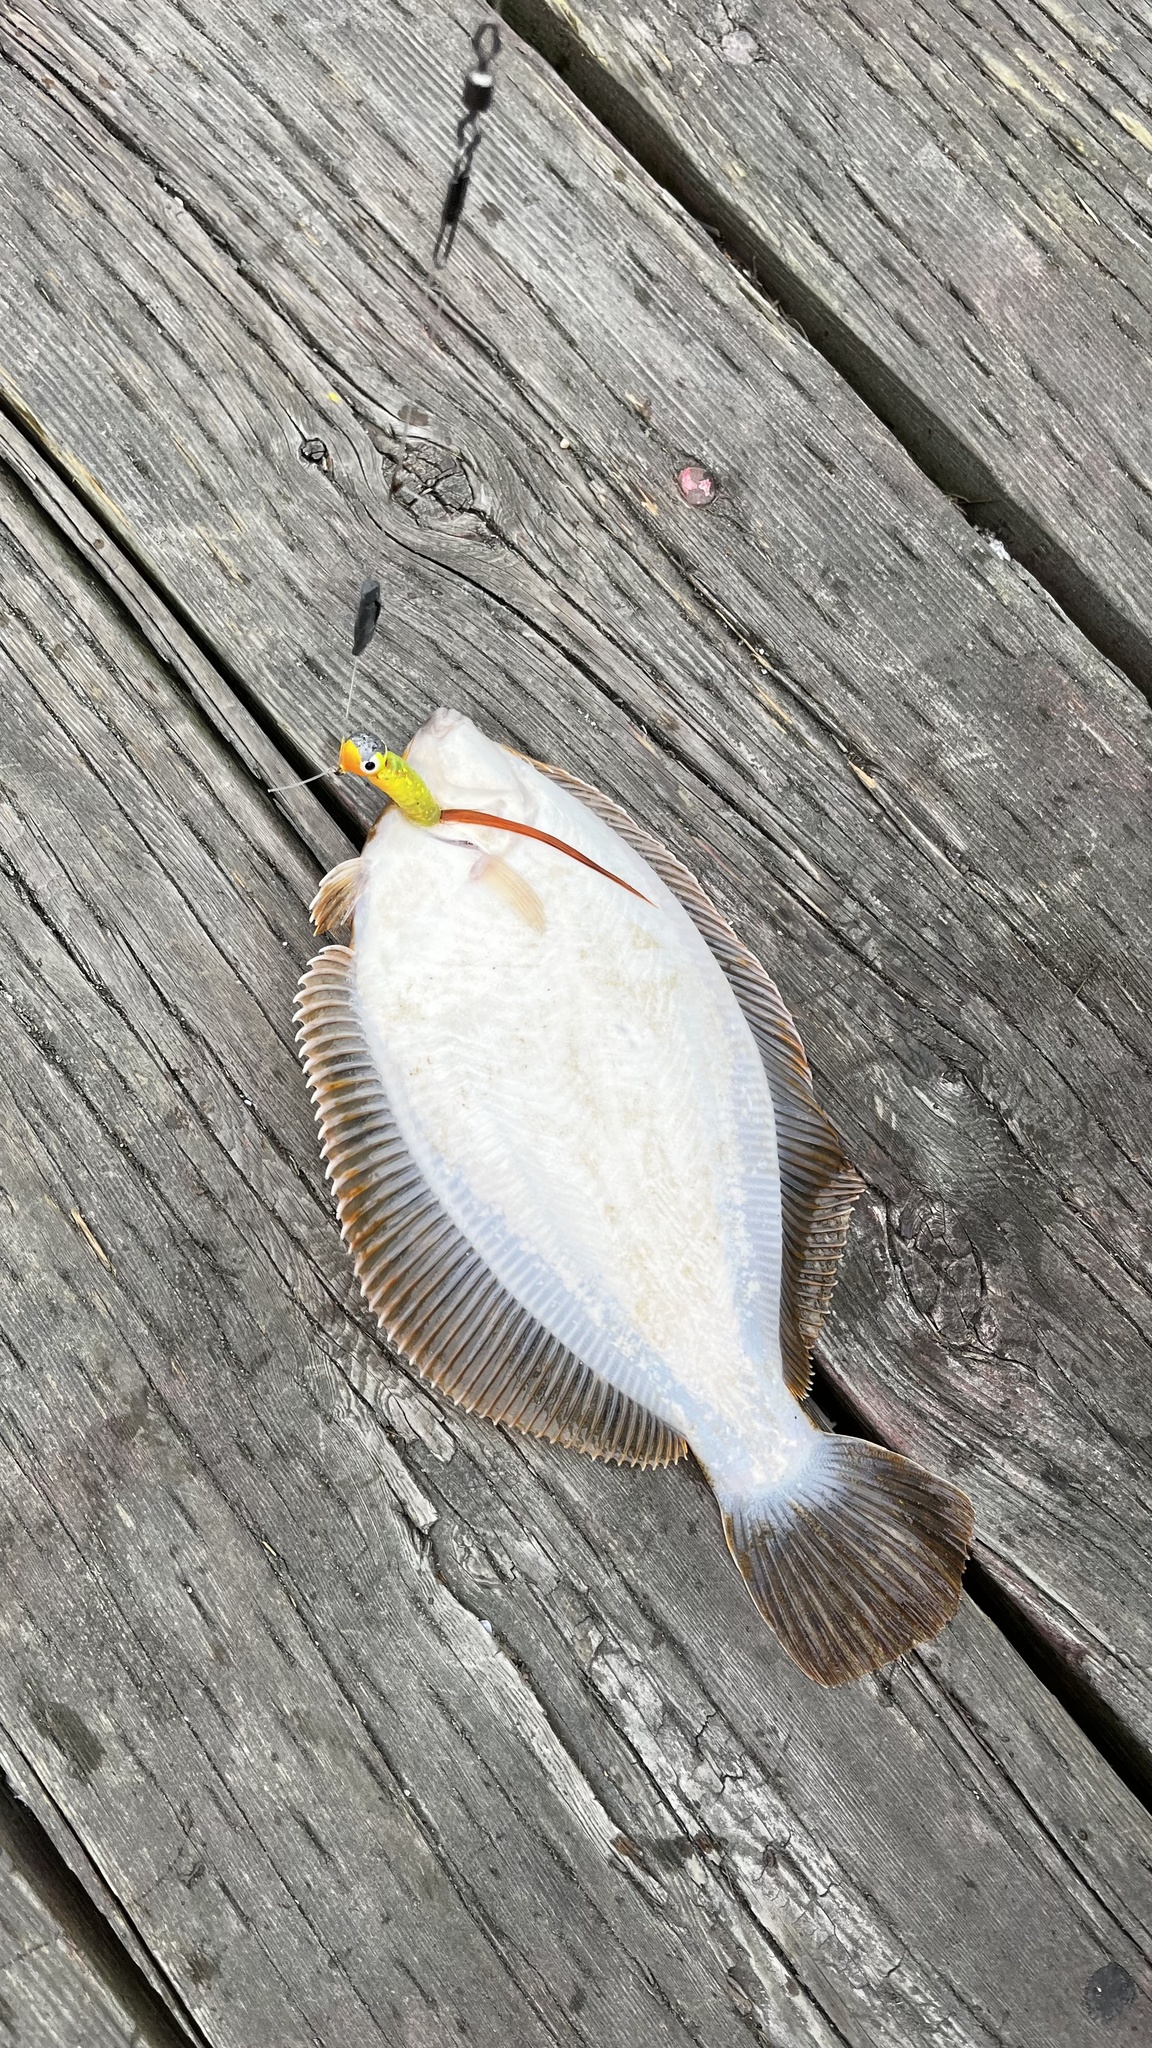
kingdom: Animalia
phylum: Chordata
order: Pleuronectiformes
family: Pleuronectidae
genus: Pseudopleuronectes
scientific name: Pseudopleuronectes americanus
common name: Black backs
